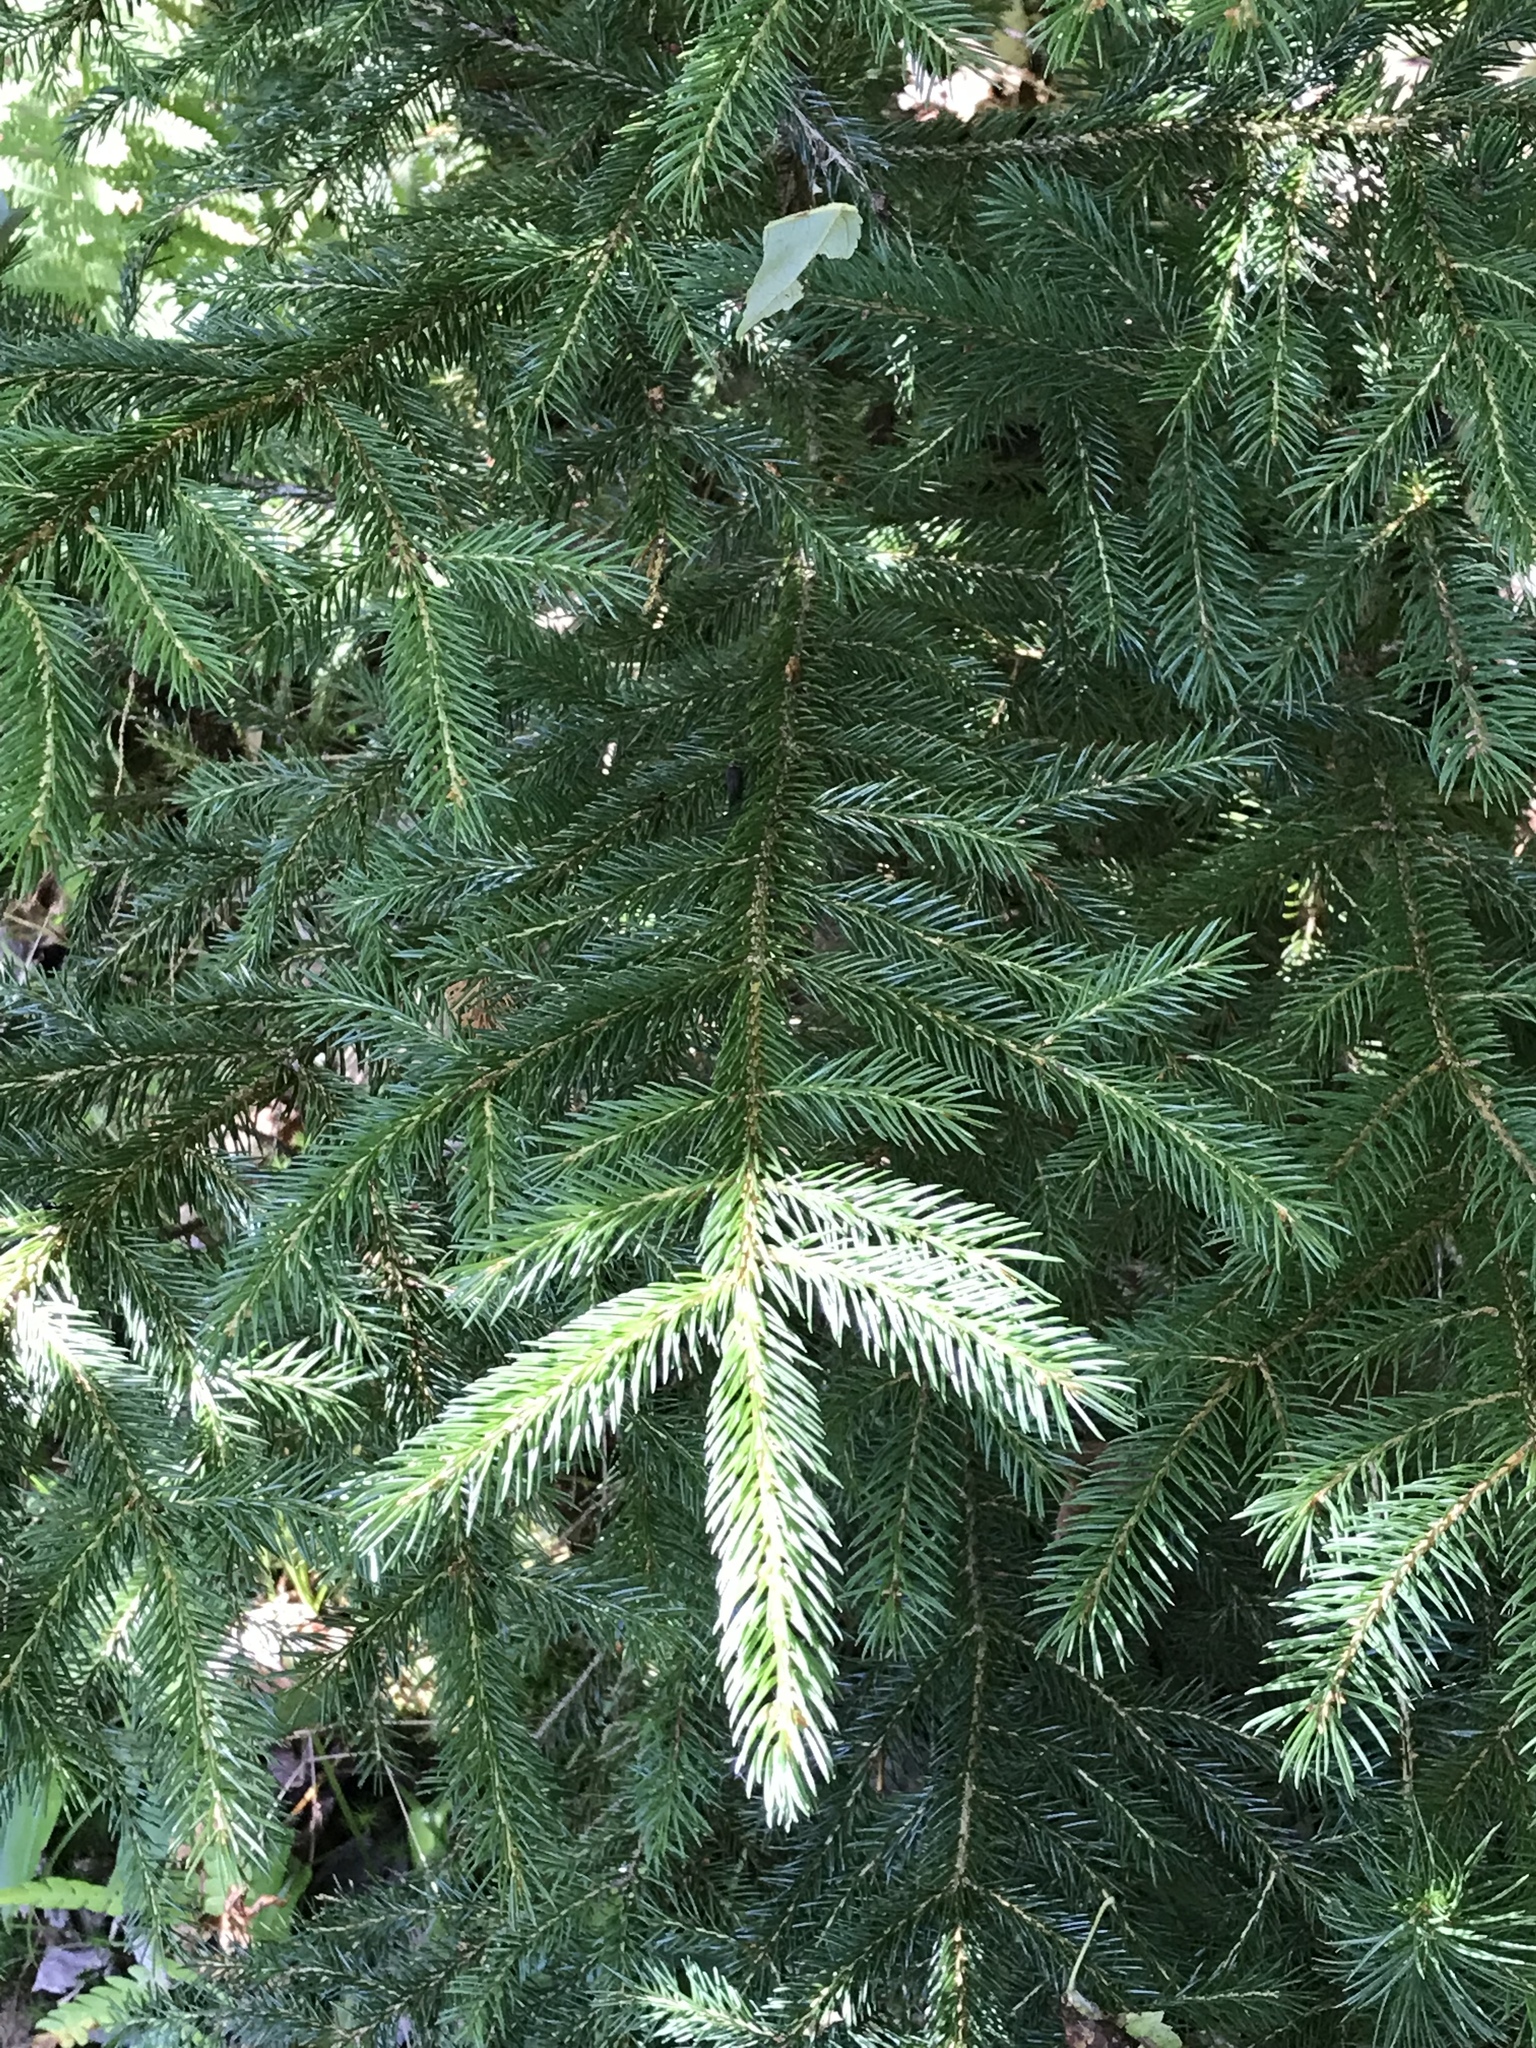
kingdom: Plantae
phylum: Tracheophyta
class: Pinopsida
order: Pinales
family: Pinaceae
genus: Picea
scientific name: Picea rubens
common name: Red spruce
